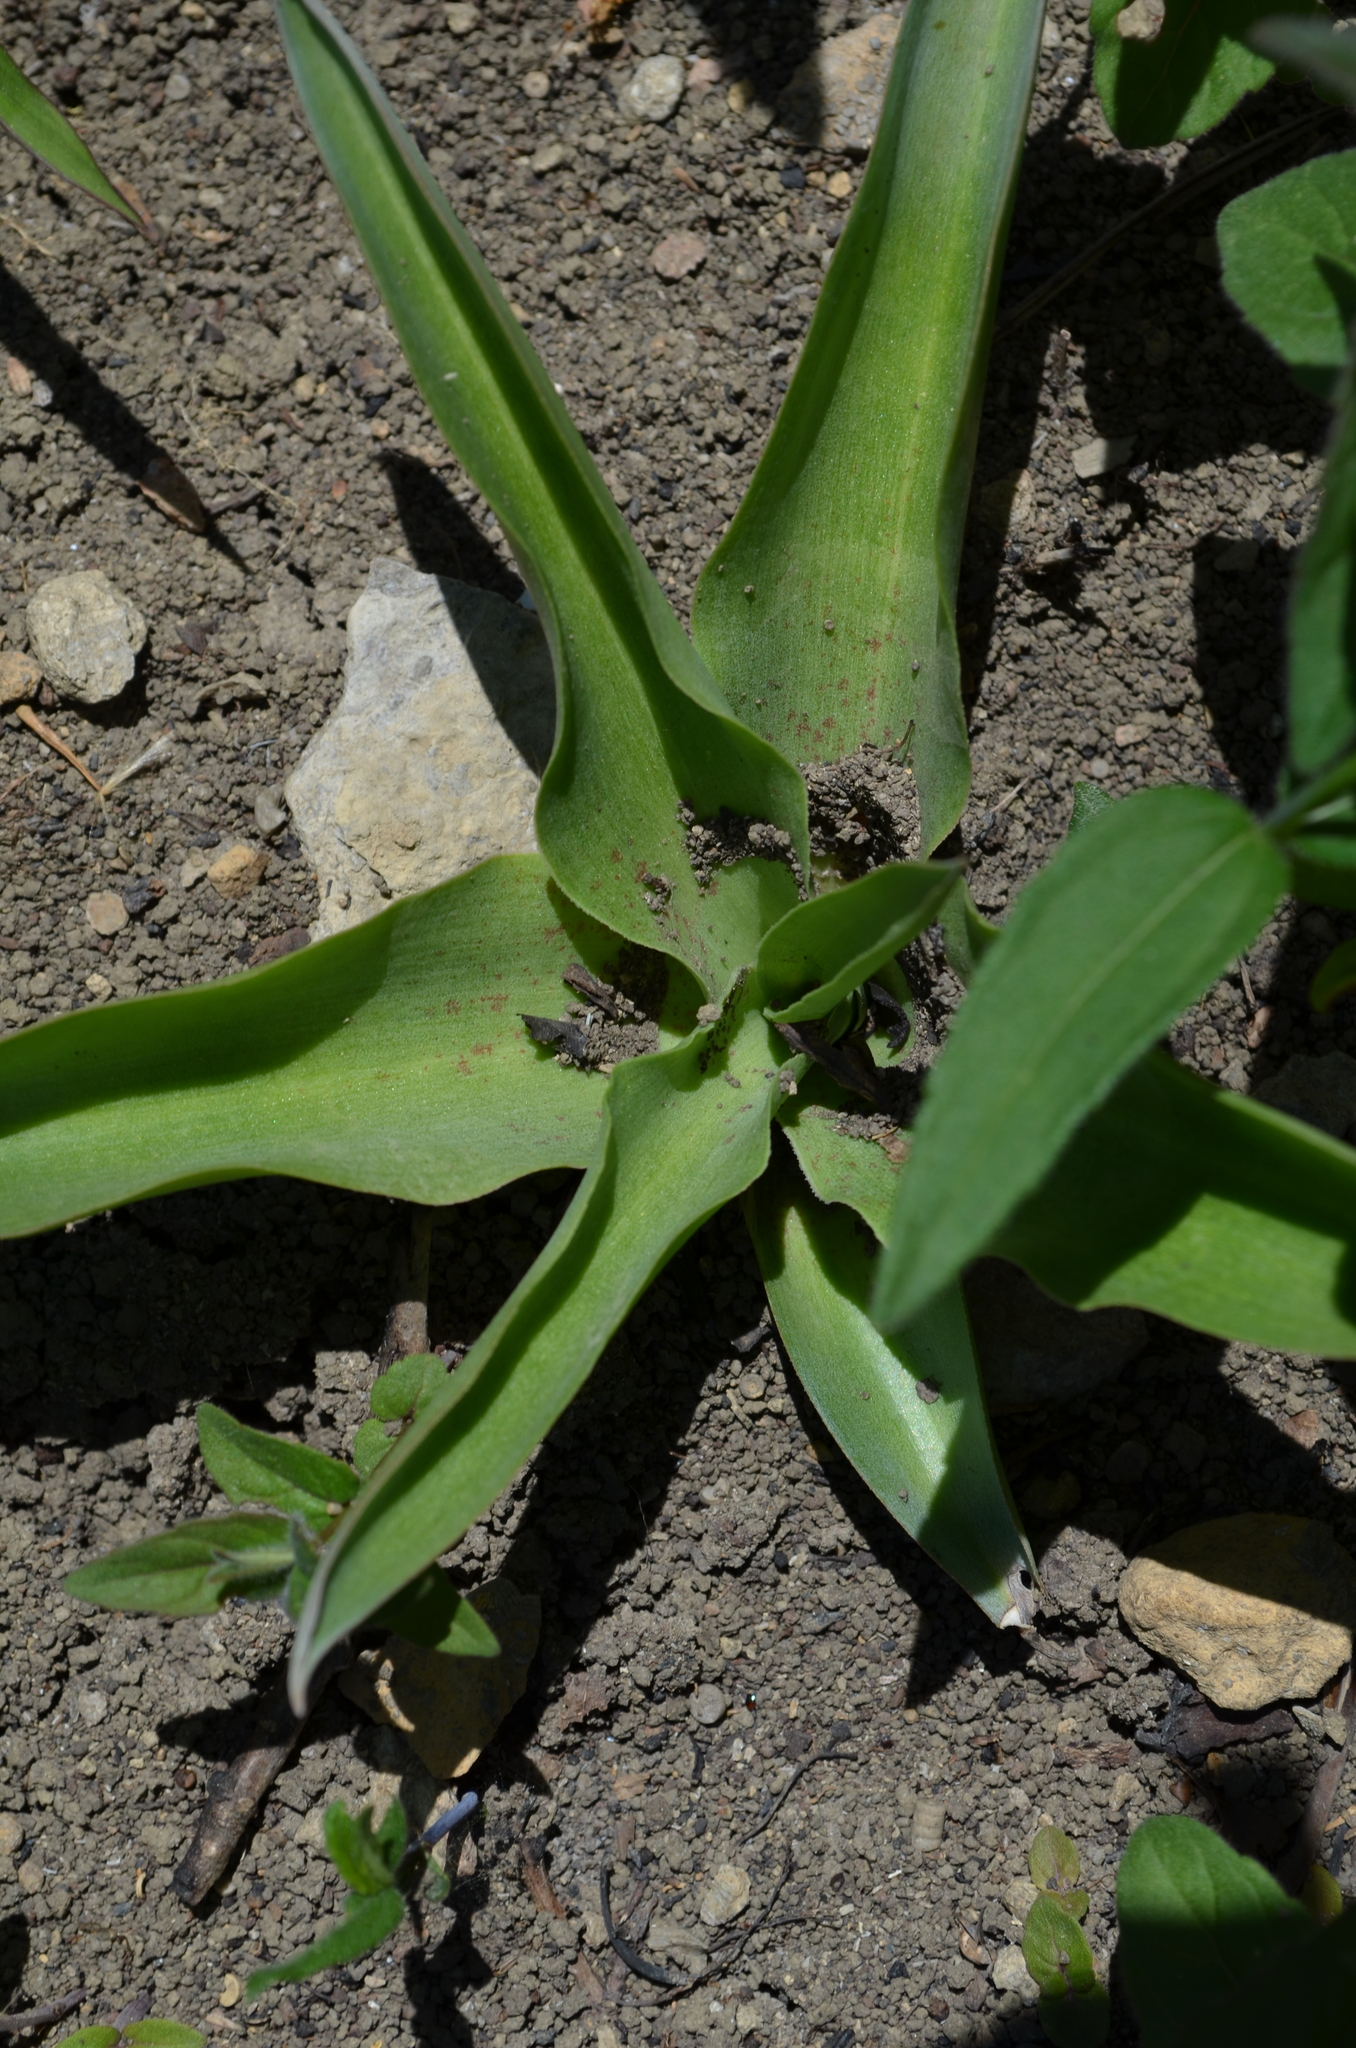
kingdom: Plantae
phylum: Tracheophyta
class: Liliopsida
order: Asparagales
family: Asparagaceae
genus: Agave
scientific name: Agave virginica
